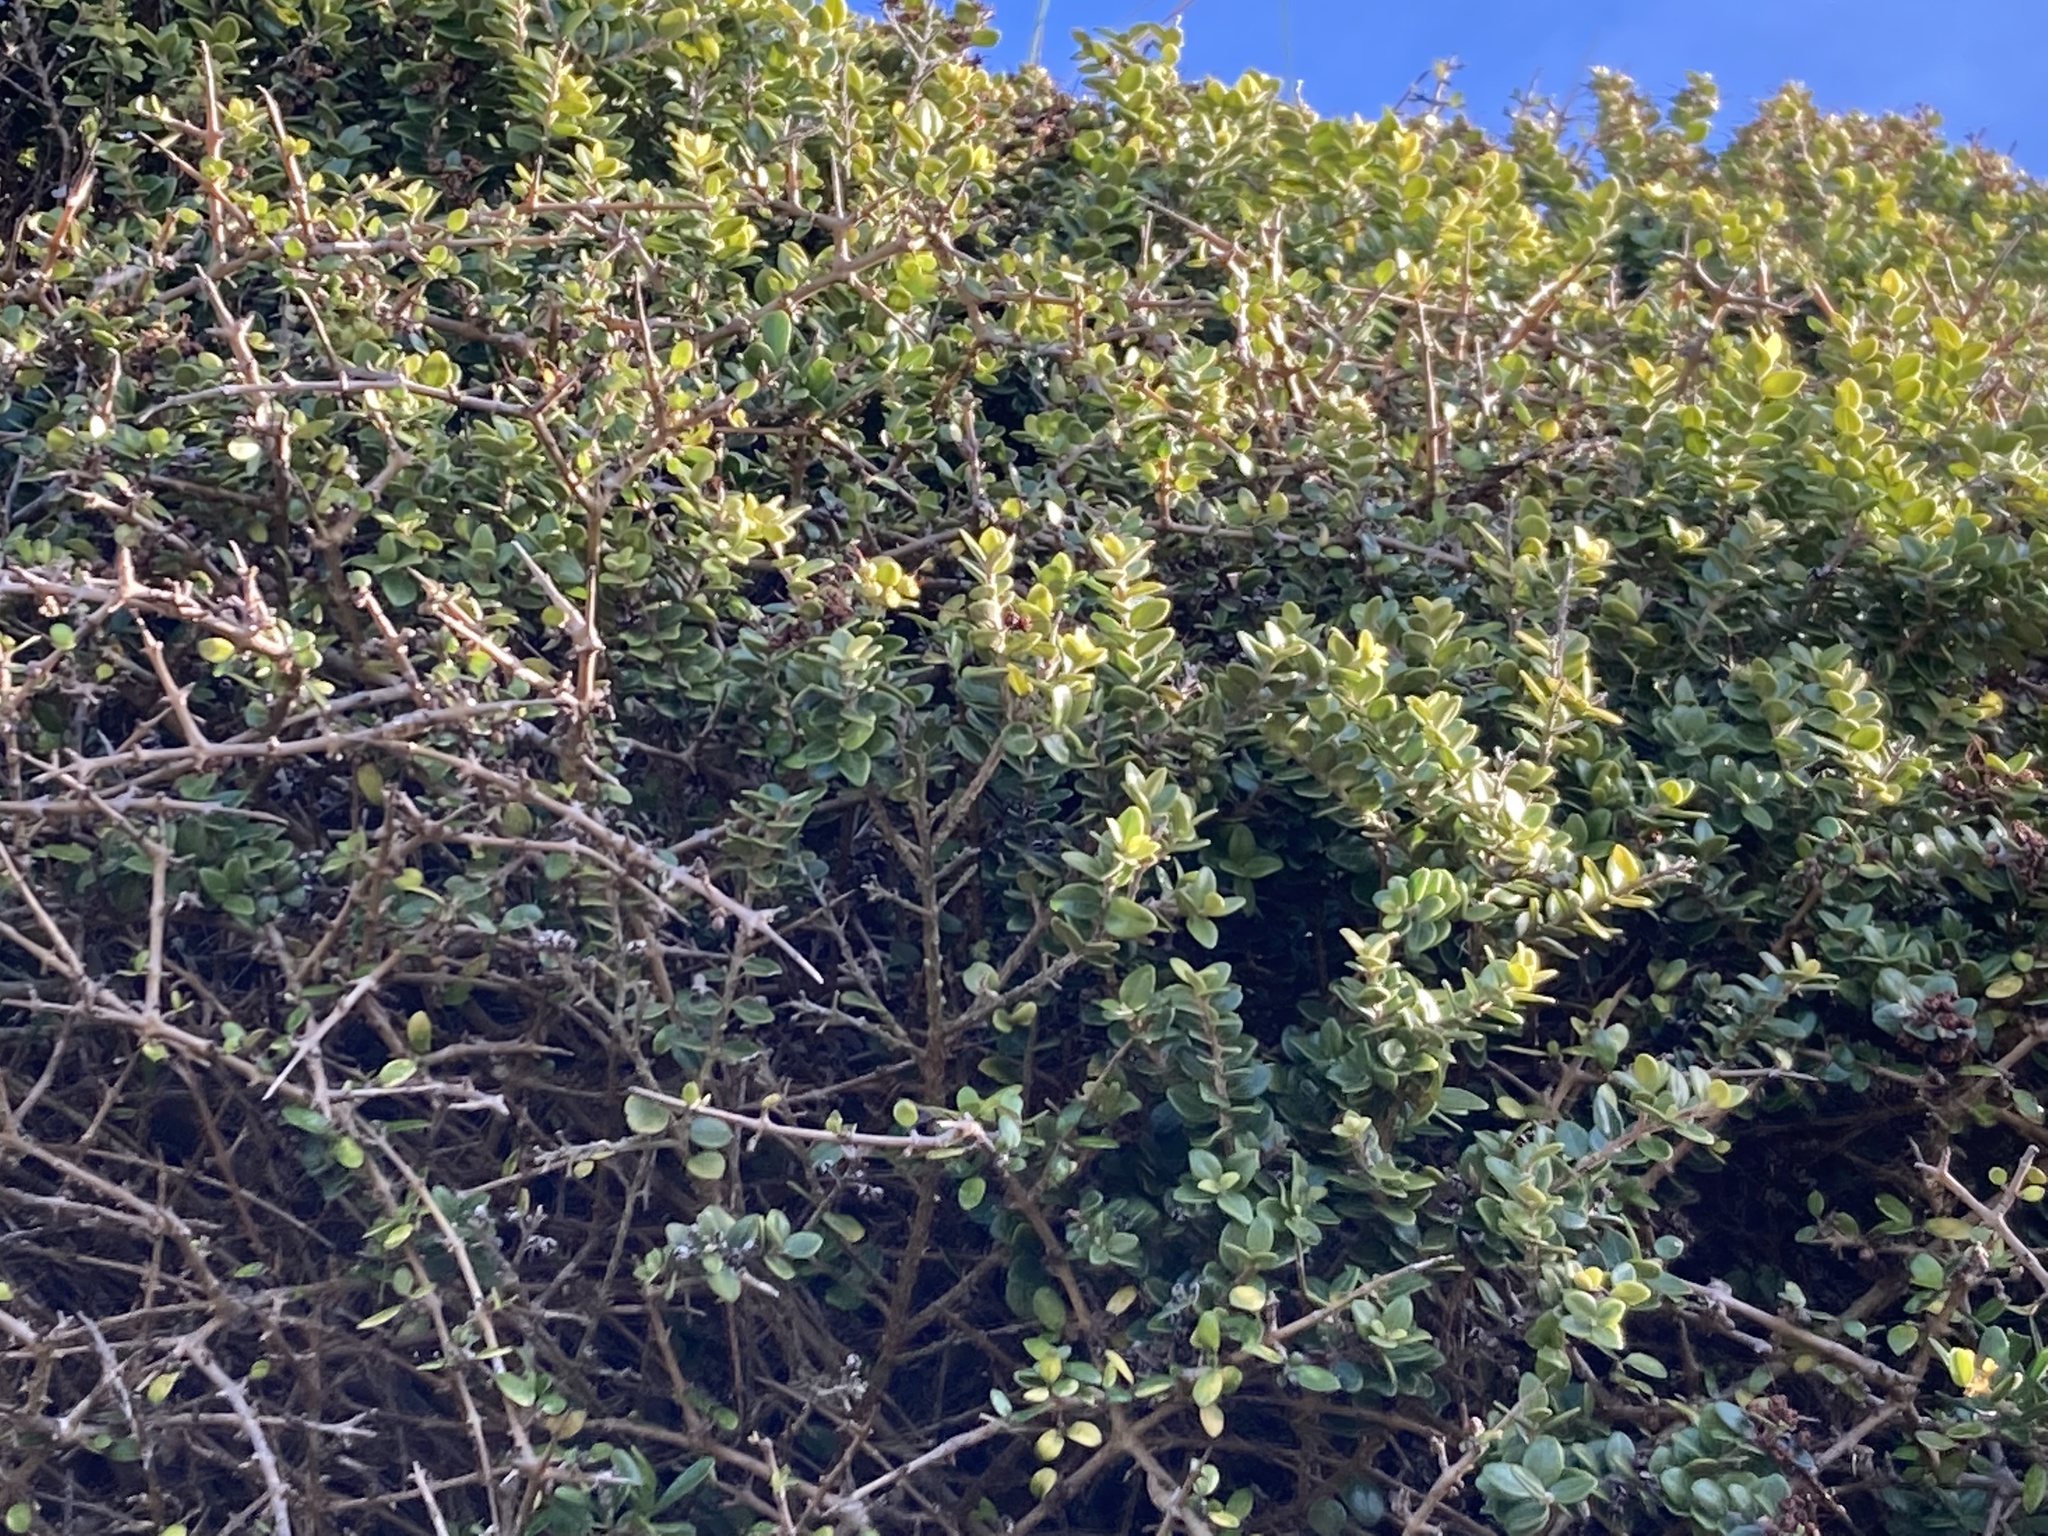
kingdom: Plantae
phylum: Tracheophyta
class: Magnoliopsida
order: Myrtales
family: Myrtaceae
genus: Metrosideros
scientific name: Metrosideros perforata
